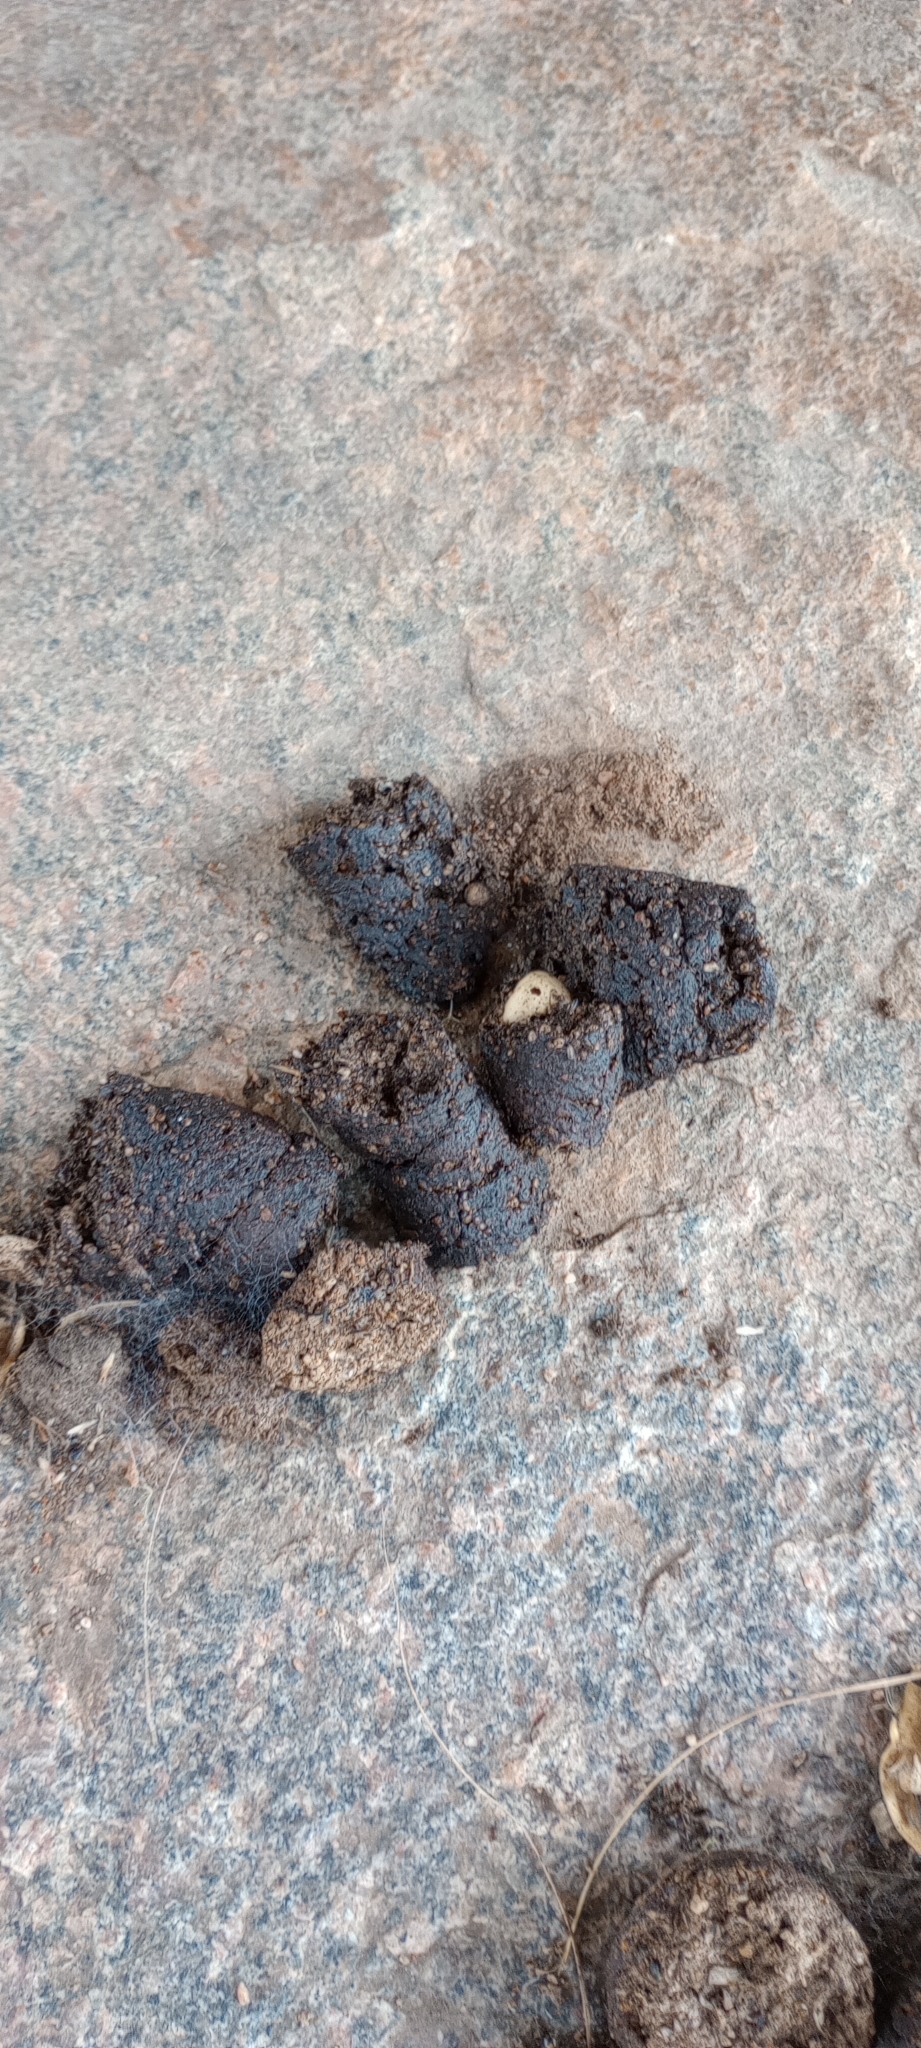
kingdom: Animalia
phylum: Chordata
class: Mammalia
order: Carnivora
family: Ursidae
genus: Melursus
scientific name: Melursus ursinus
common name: Sloth bear
